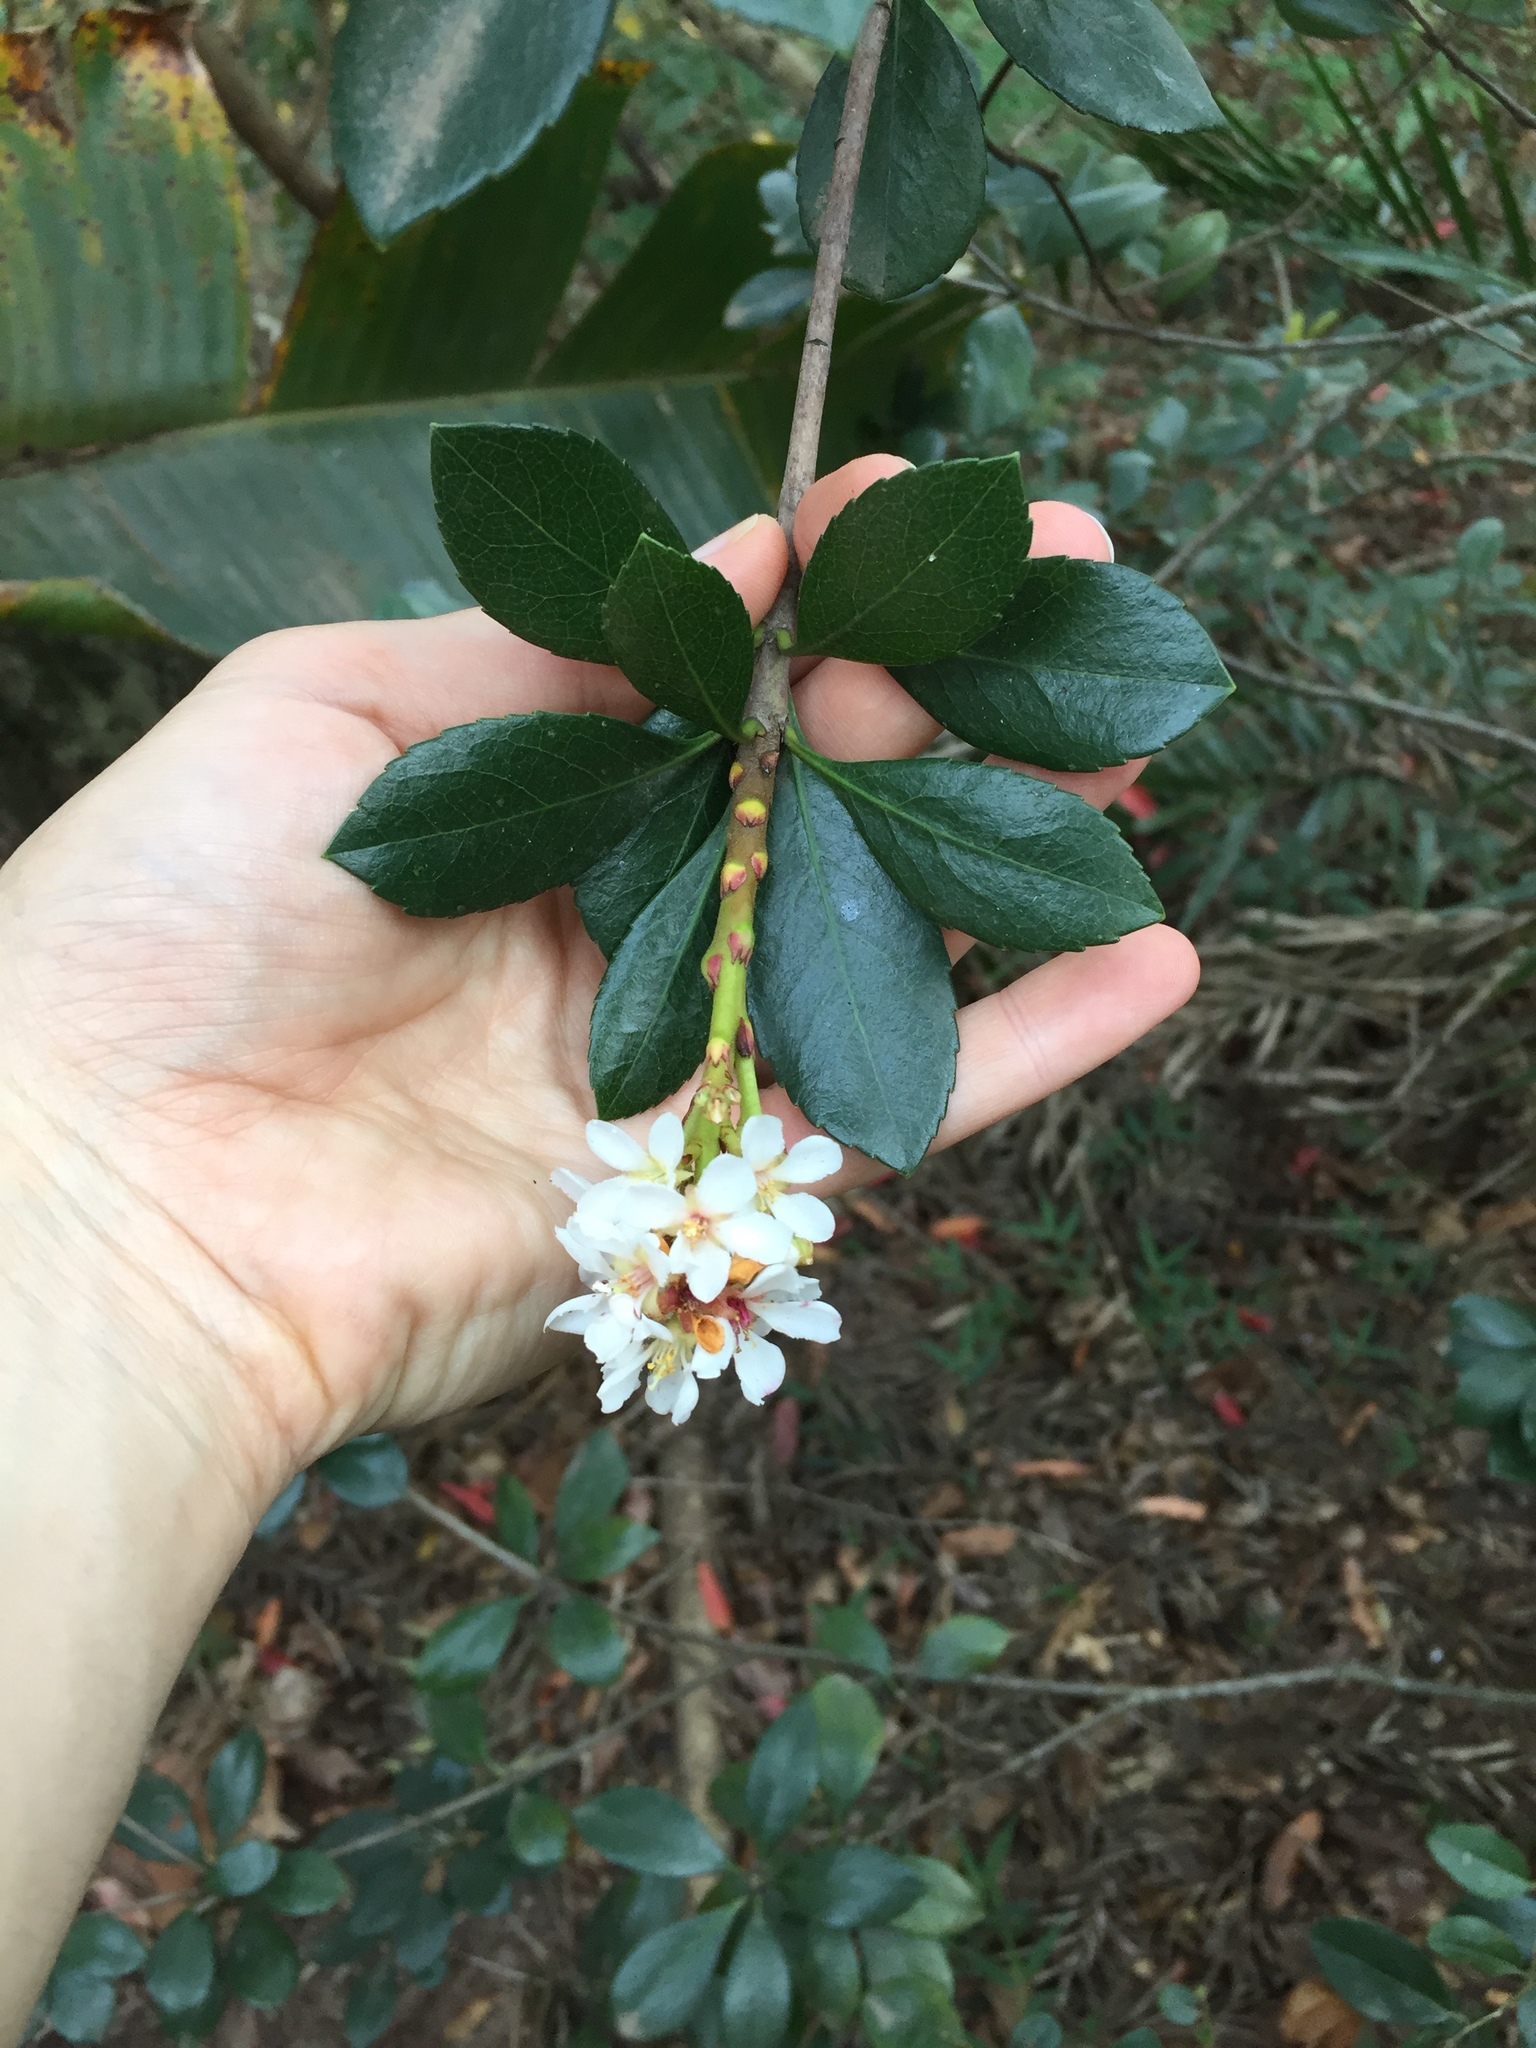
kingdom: Plantae
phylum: Tracheophyta
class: Magnoliopsida
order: Rosales
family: Rosaceae
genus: Rhaphiolepis
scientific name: Rhaphiolepis indica
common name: India-hawthorn
